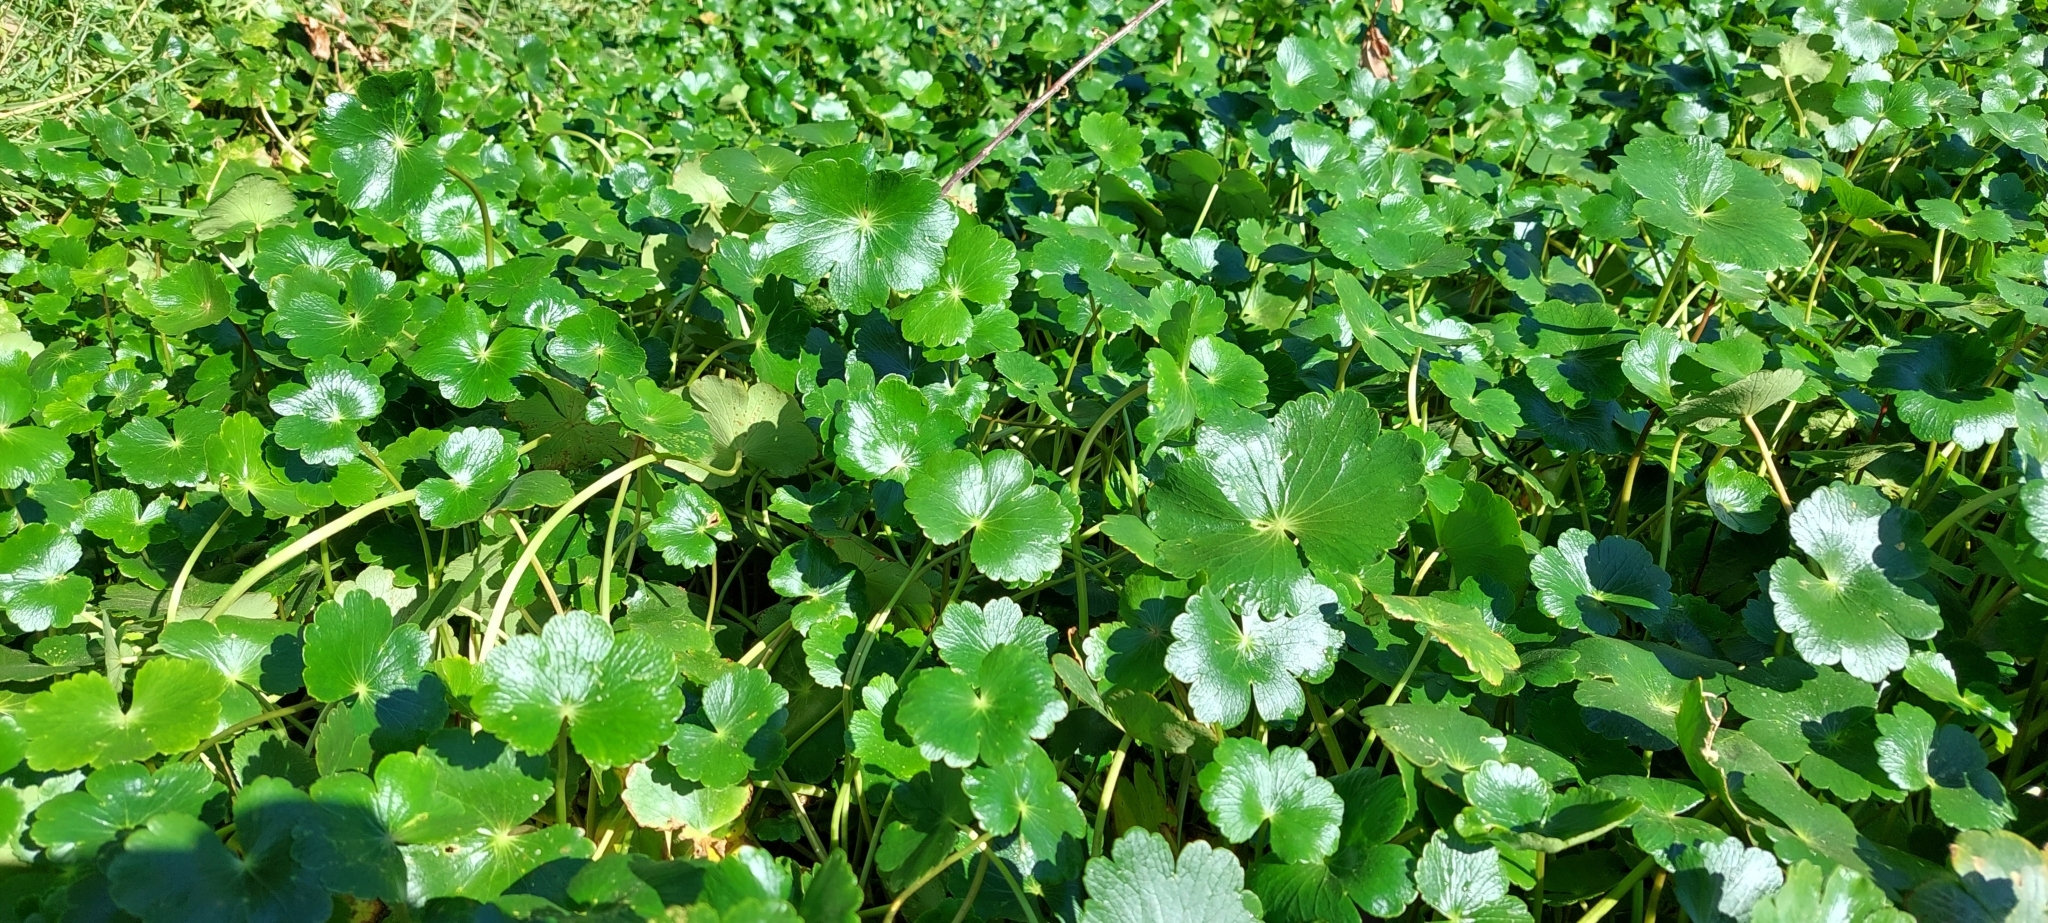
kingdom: Plantae
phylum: Tracheophyta
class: Magnoliopsida
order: Apiales
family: Araliaceae
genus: Hydrocotyle
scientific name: Hydrocotyle ranunculoides
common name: Floating pennywort
